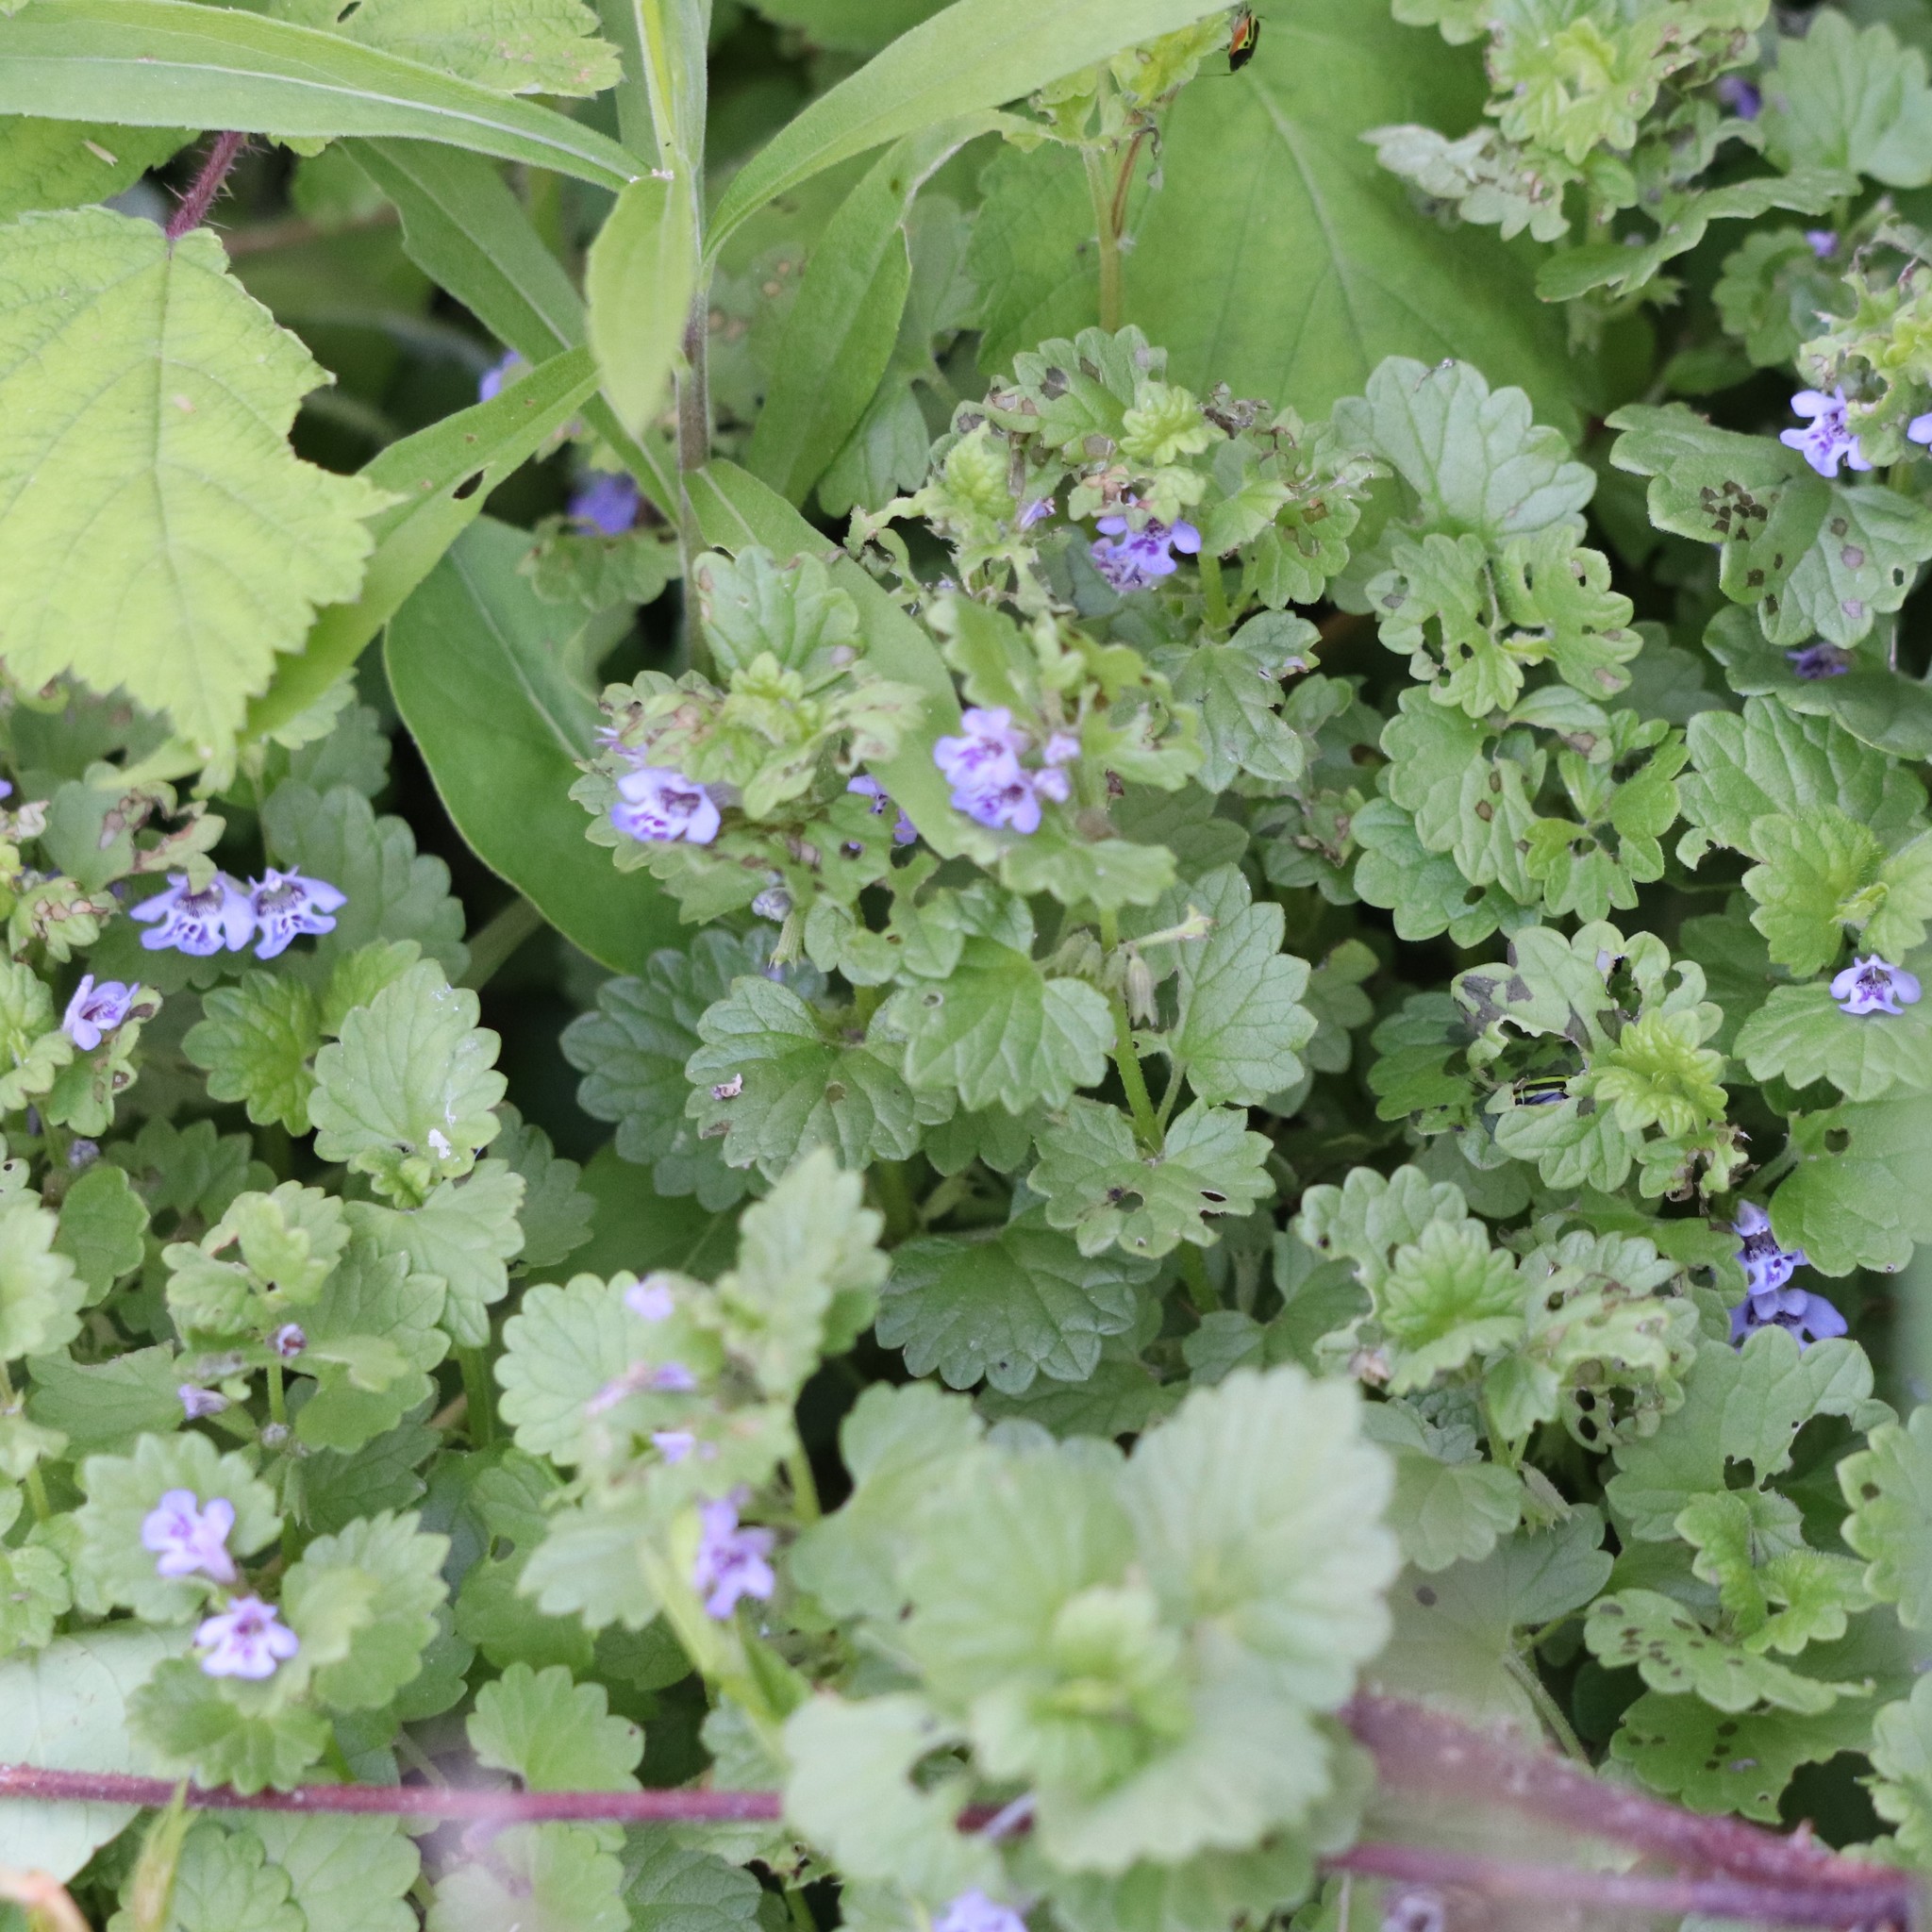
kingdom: Plantae
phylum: Tracheophyta
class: Magnoliopsida
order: Lamiales
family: Lamiaceae
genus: Glechoma
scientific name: Glechoma hederacea
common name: Ground ivy
